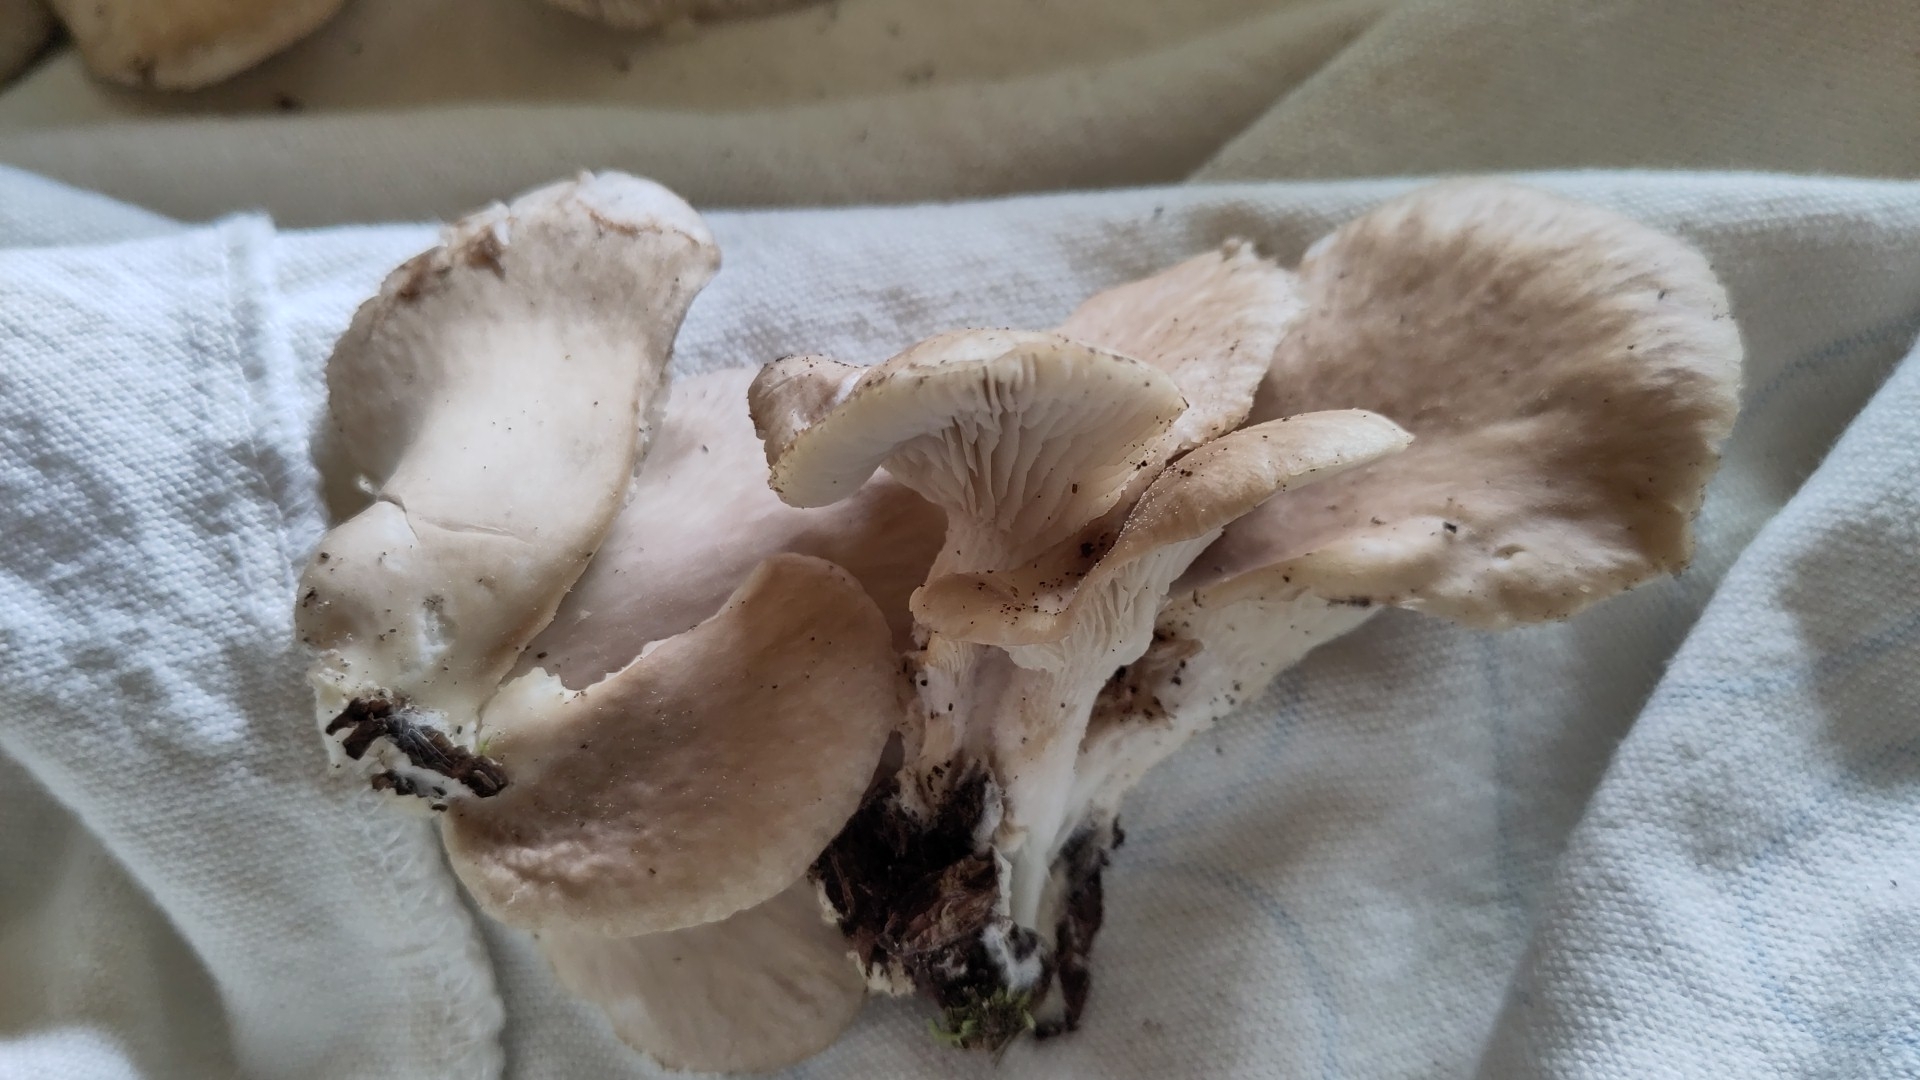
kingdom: Fungi
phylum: Basidiomycota
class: Agaricomycetes
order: Agaricales
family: Pleurotaceae
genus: Pleurotus
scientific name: Pleurotus pulmonarius
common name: Pale oyster
